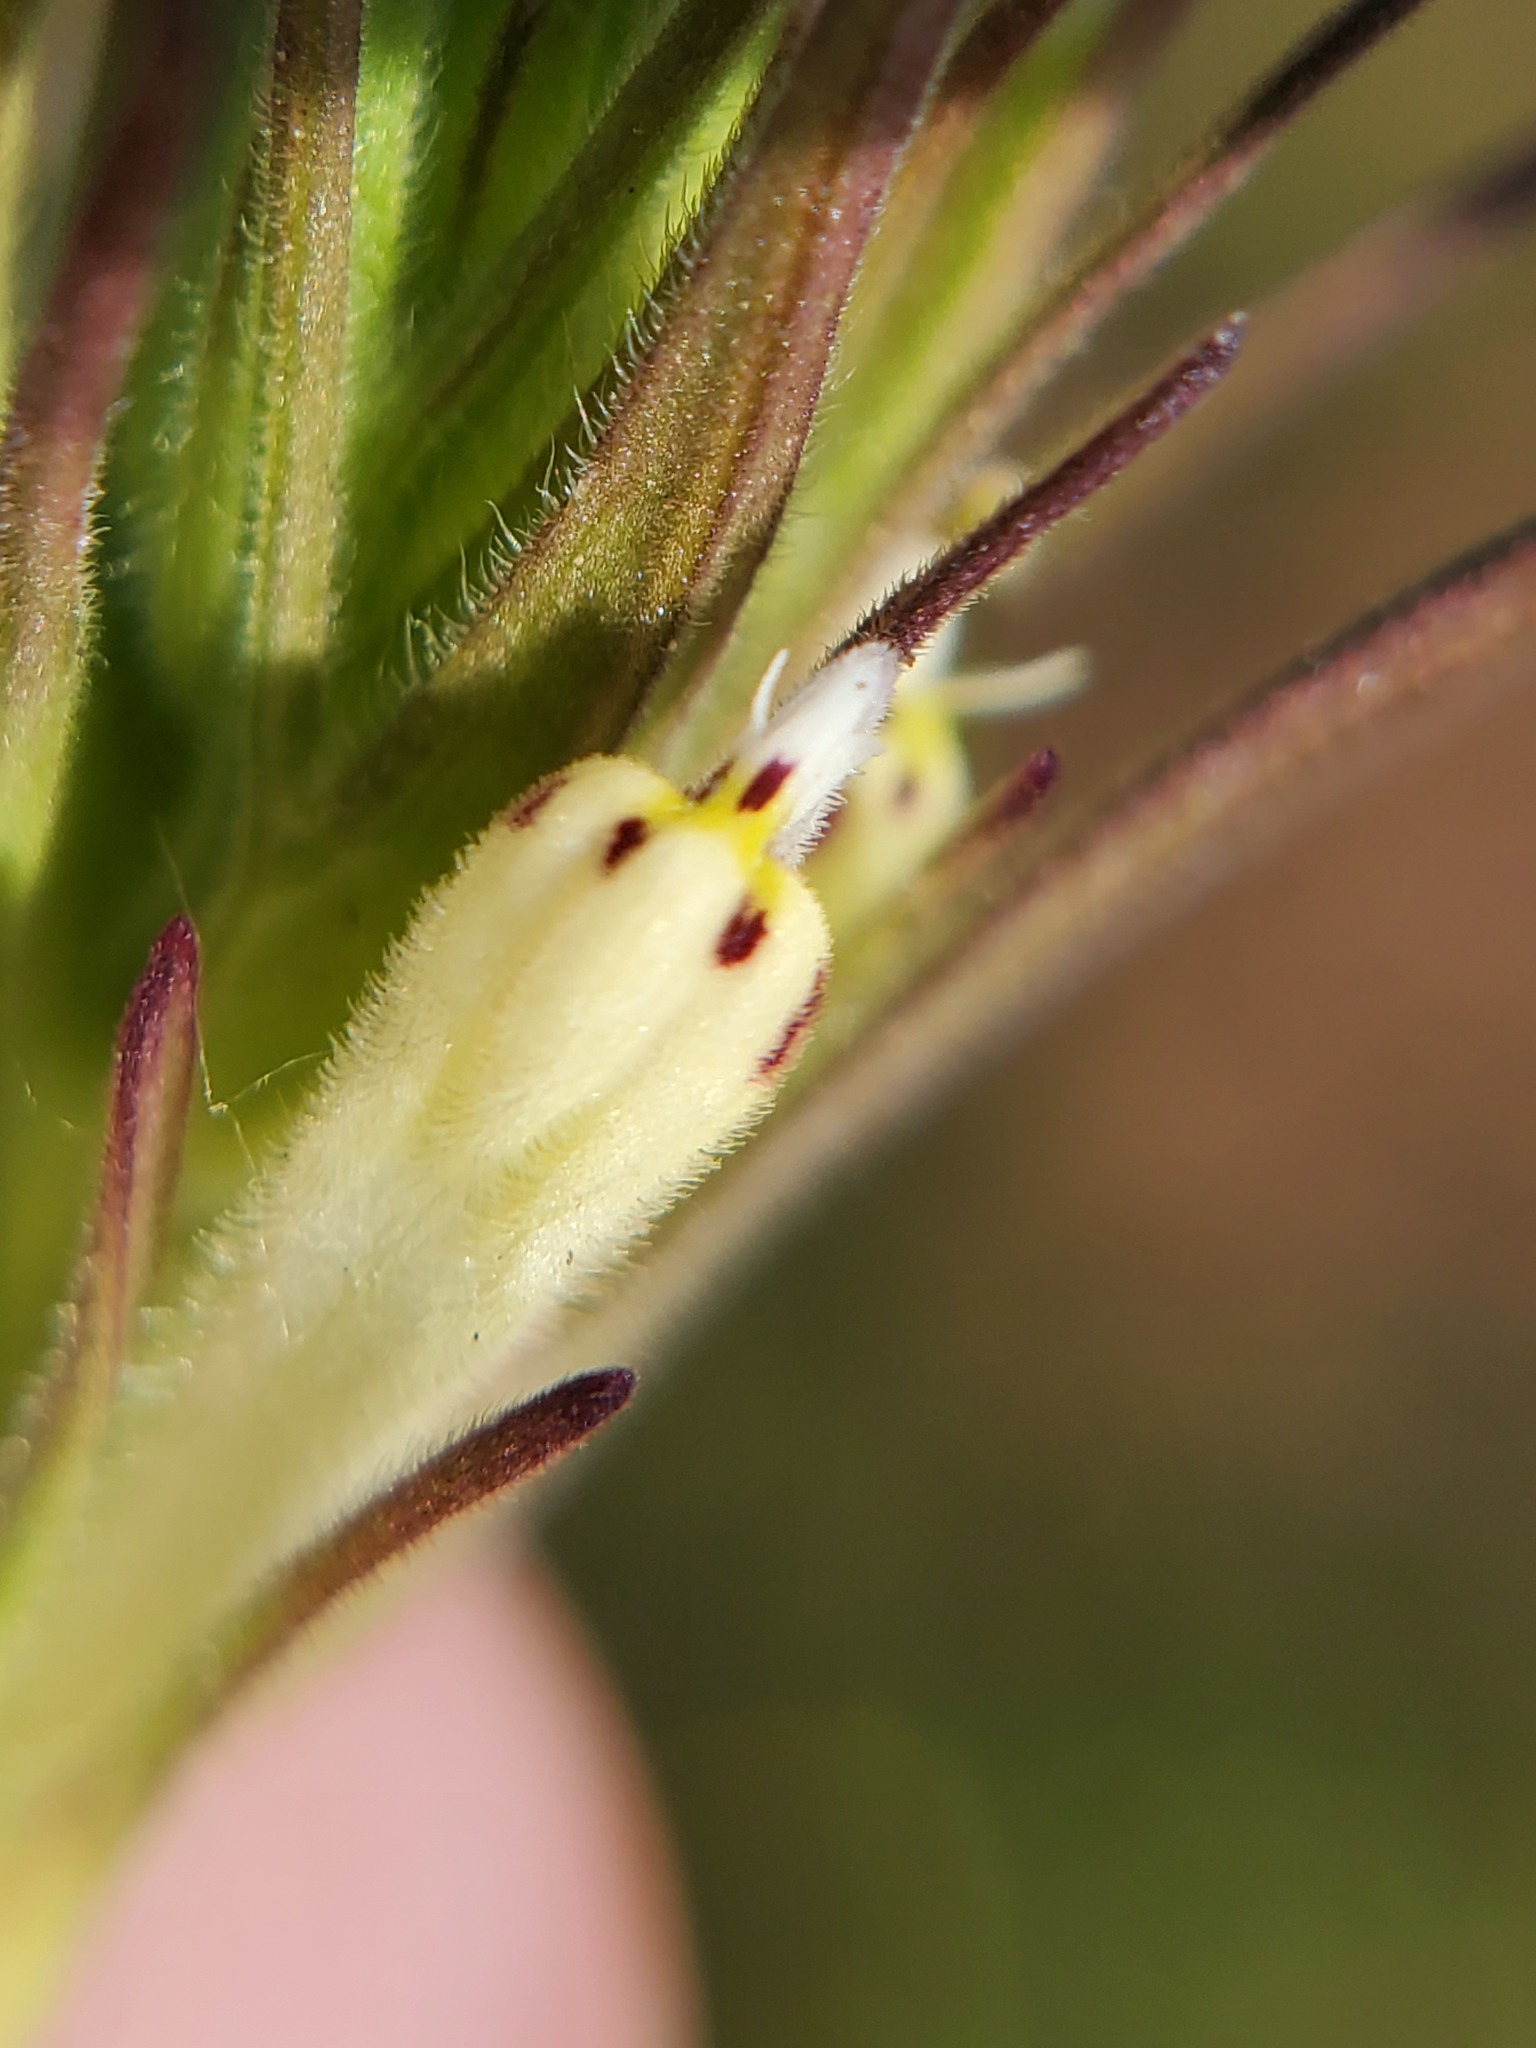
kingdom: Plantae
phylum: Tracheophyta
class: Magnoliopsida
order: Lamiales
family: Orobanchaceae
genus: Castilleja
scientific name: Castilleja attenuata
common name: Valley tassels
